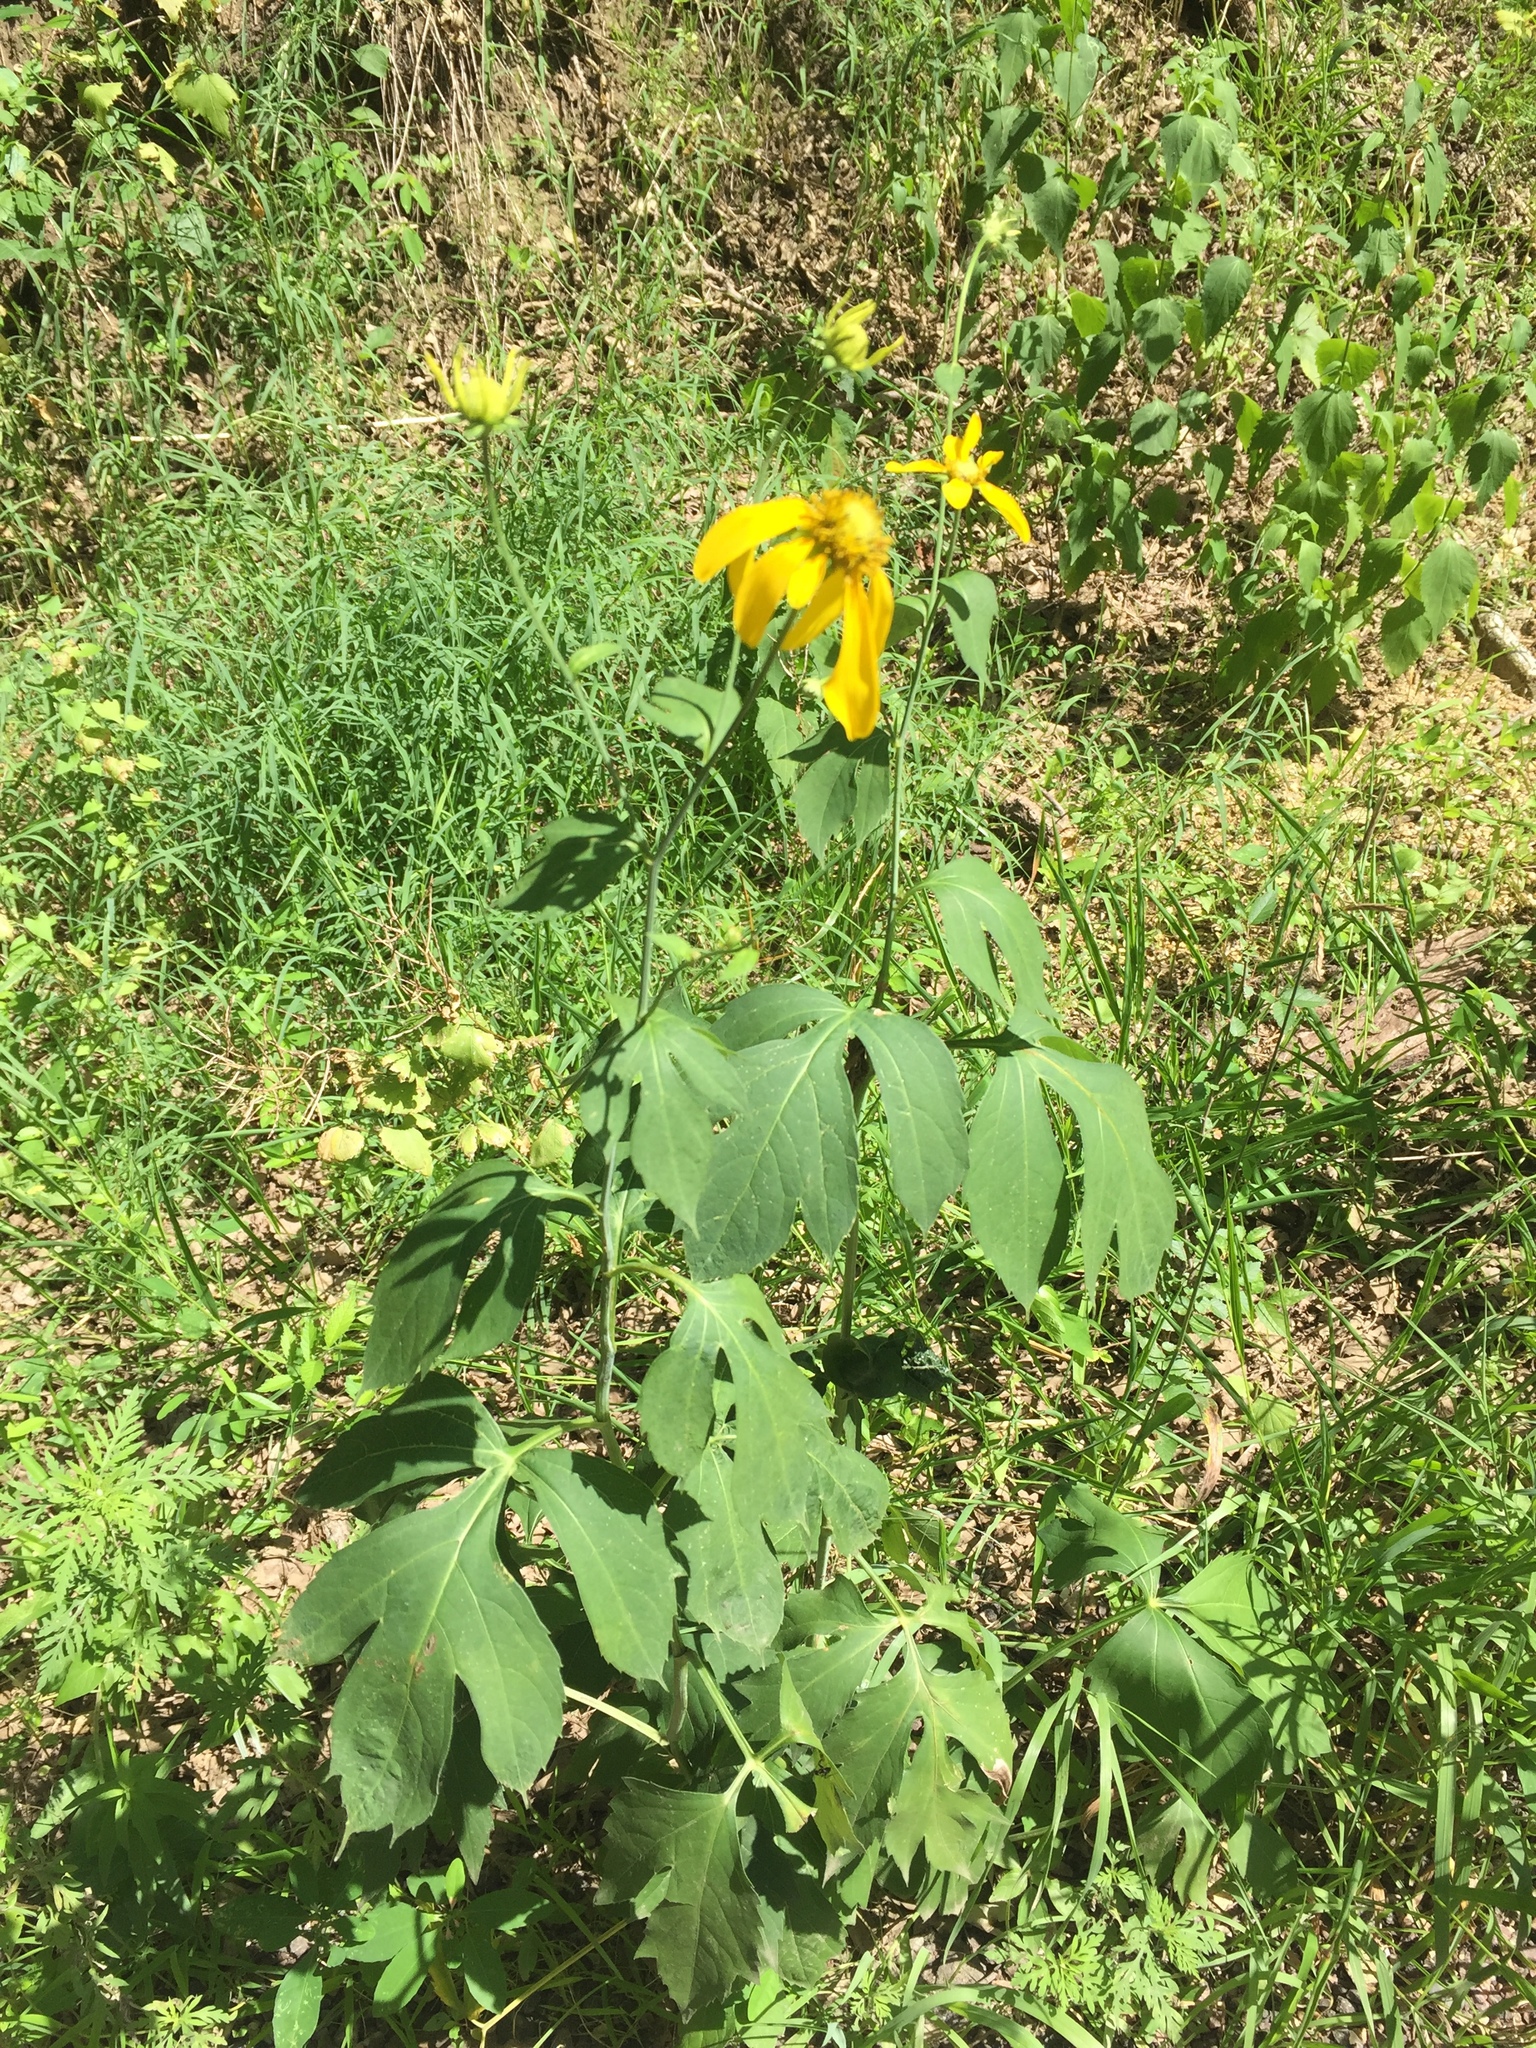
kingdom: Plantae
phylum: Tracheophyta
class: Magnoliopsida
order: Asterales
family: Asteraceae
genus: Rudbeckia
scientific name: Rudbeckia laciniata
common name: Coneflower
